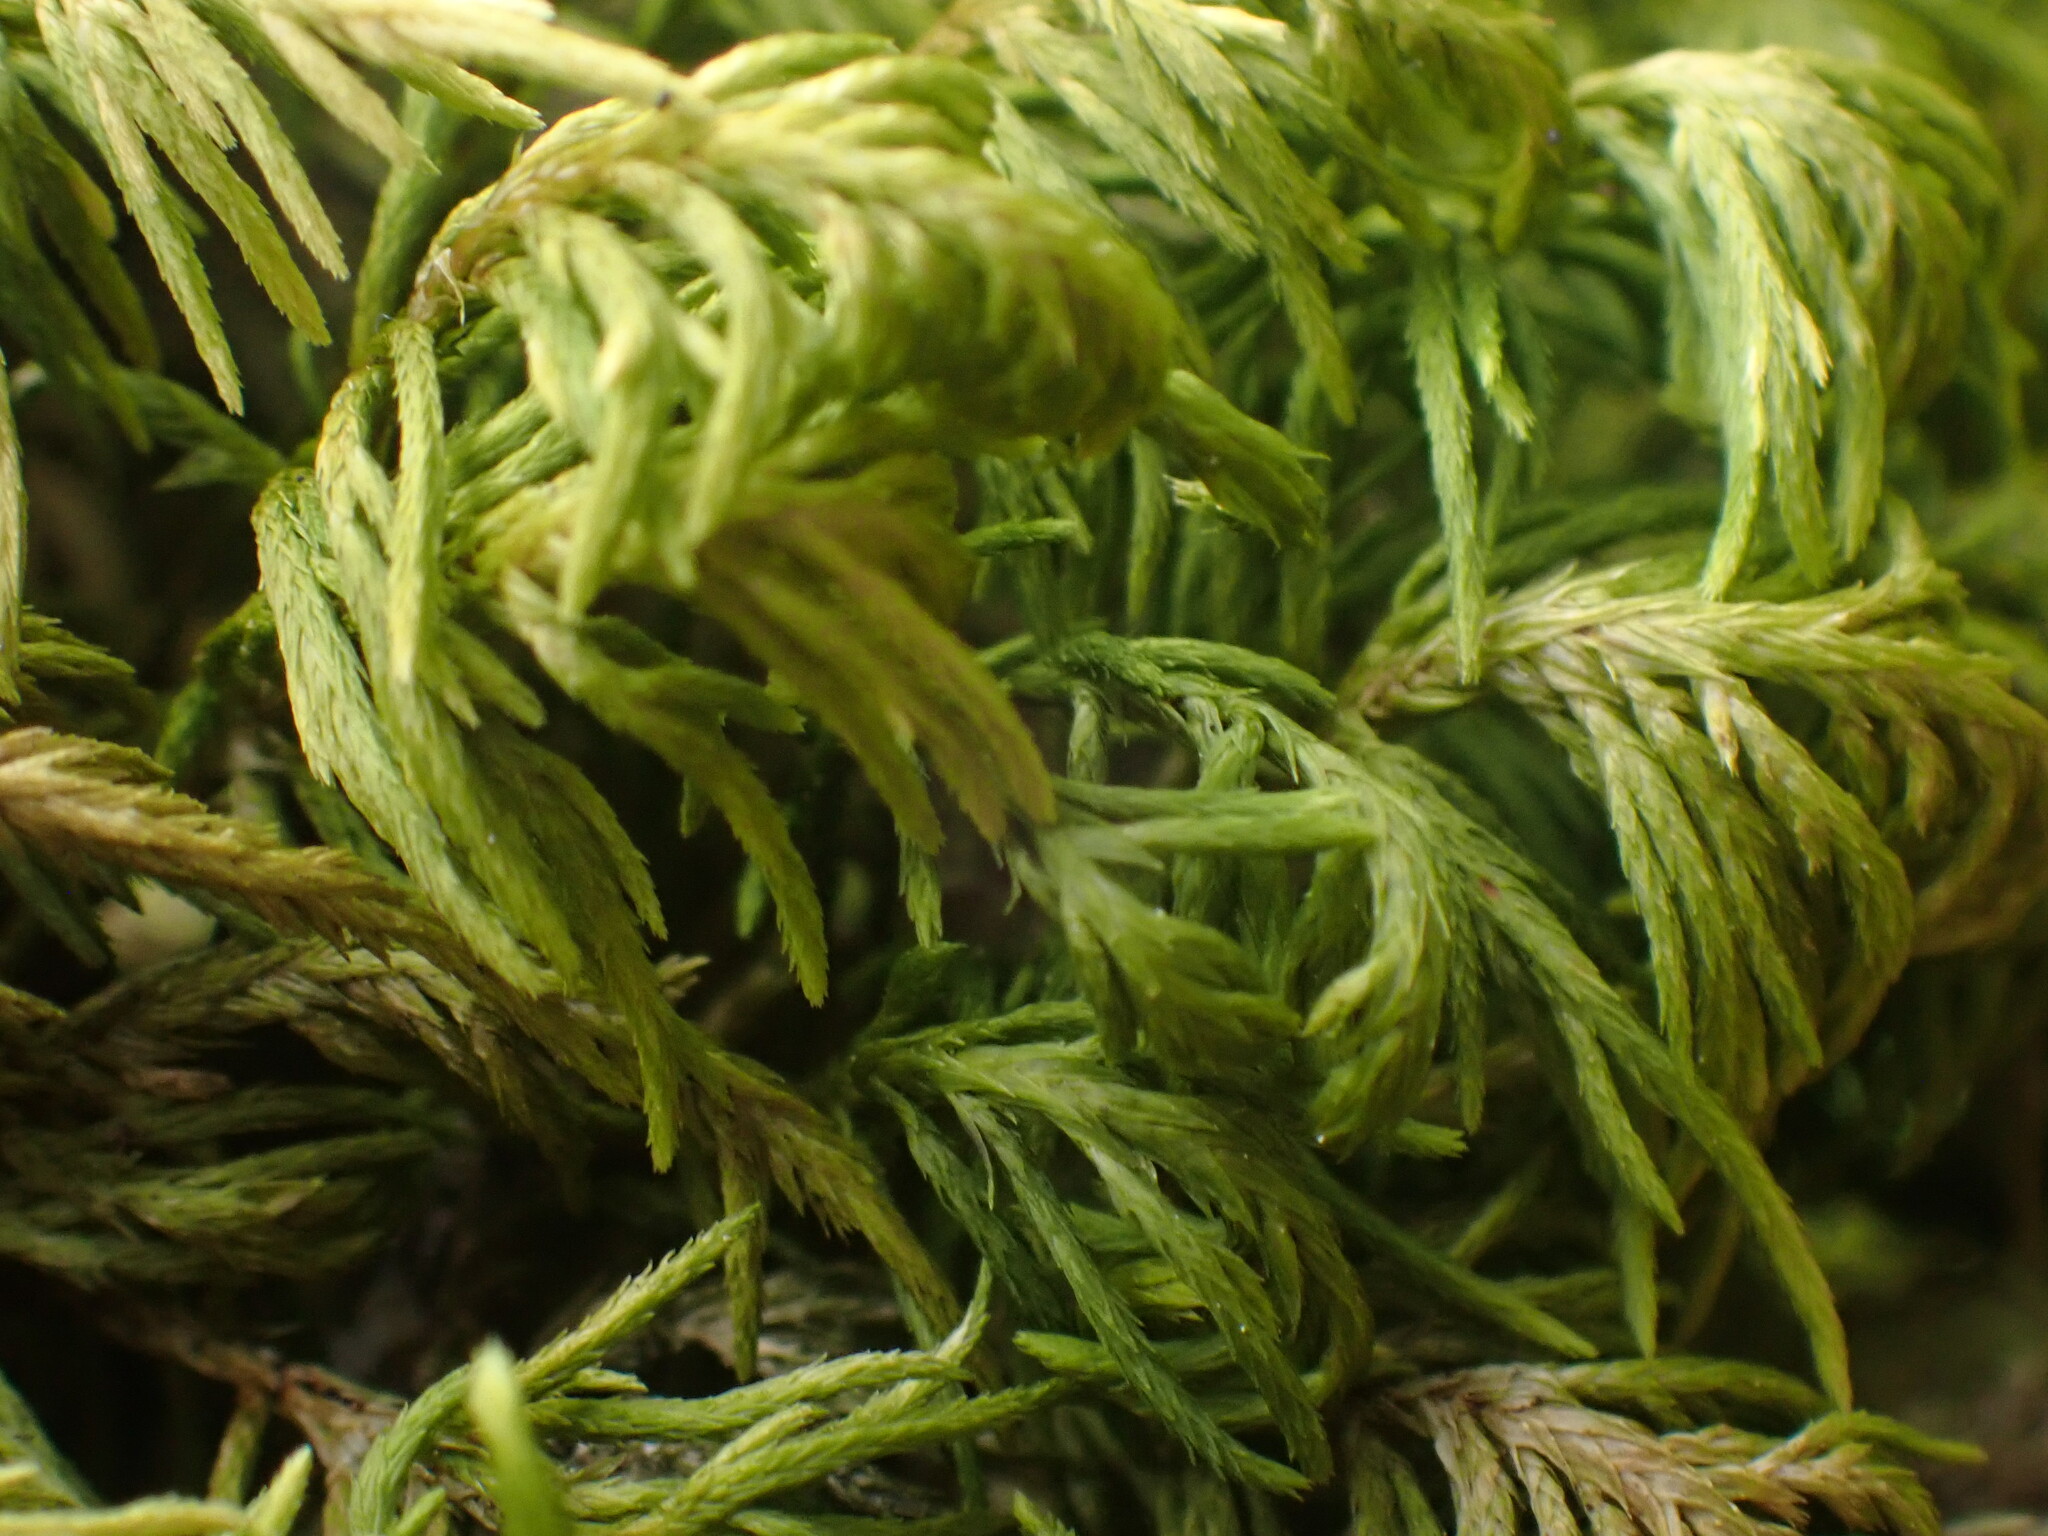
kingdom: Plantae
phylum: Bryophyta
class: Bryopsida
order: Hypnales
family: Cryphaeaceae
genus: Dendroalsia
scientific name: Dendroalsia abietina
